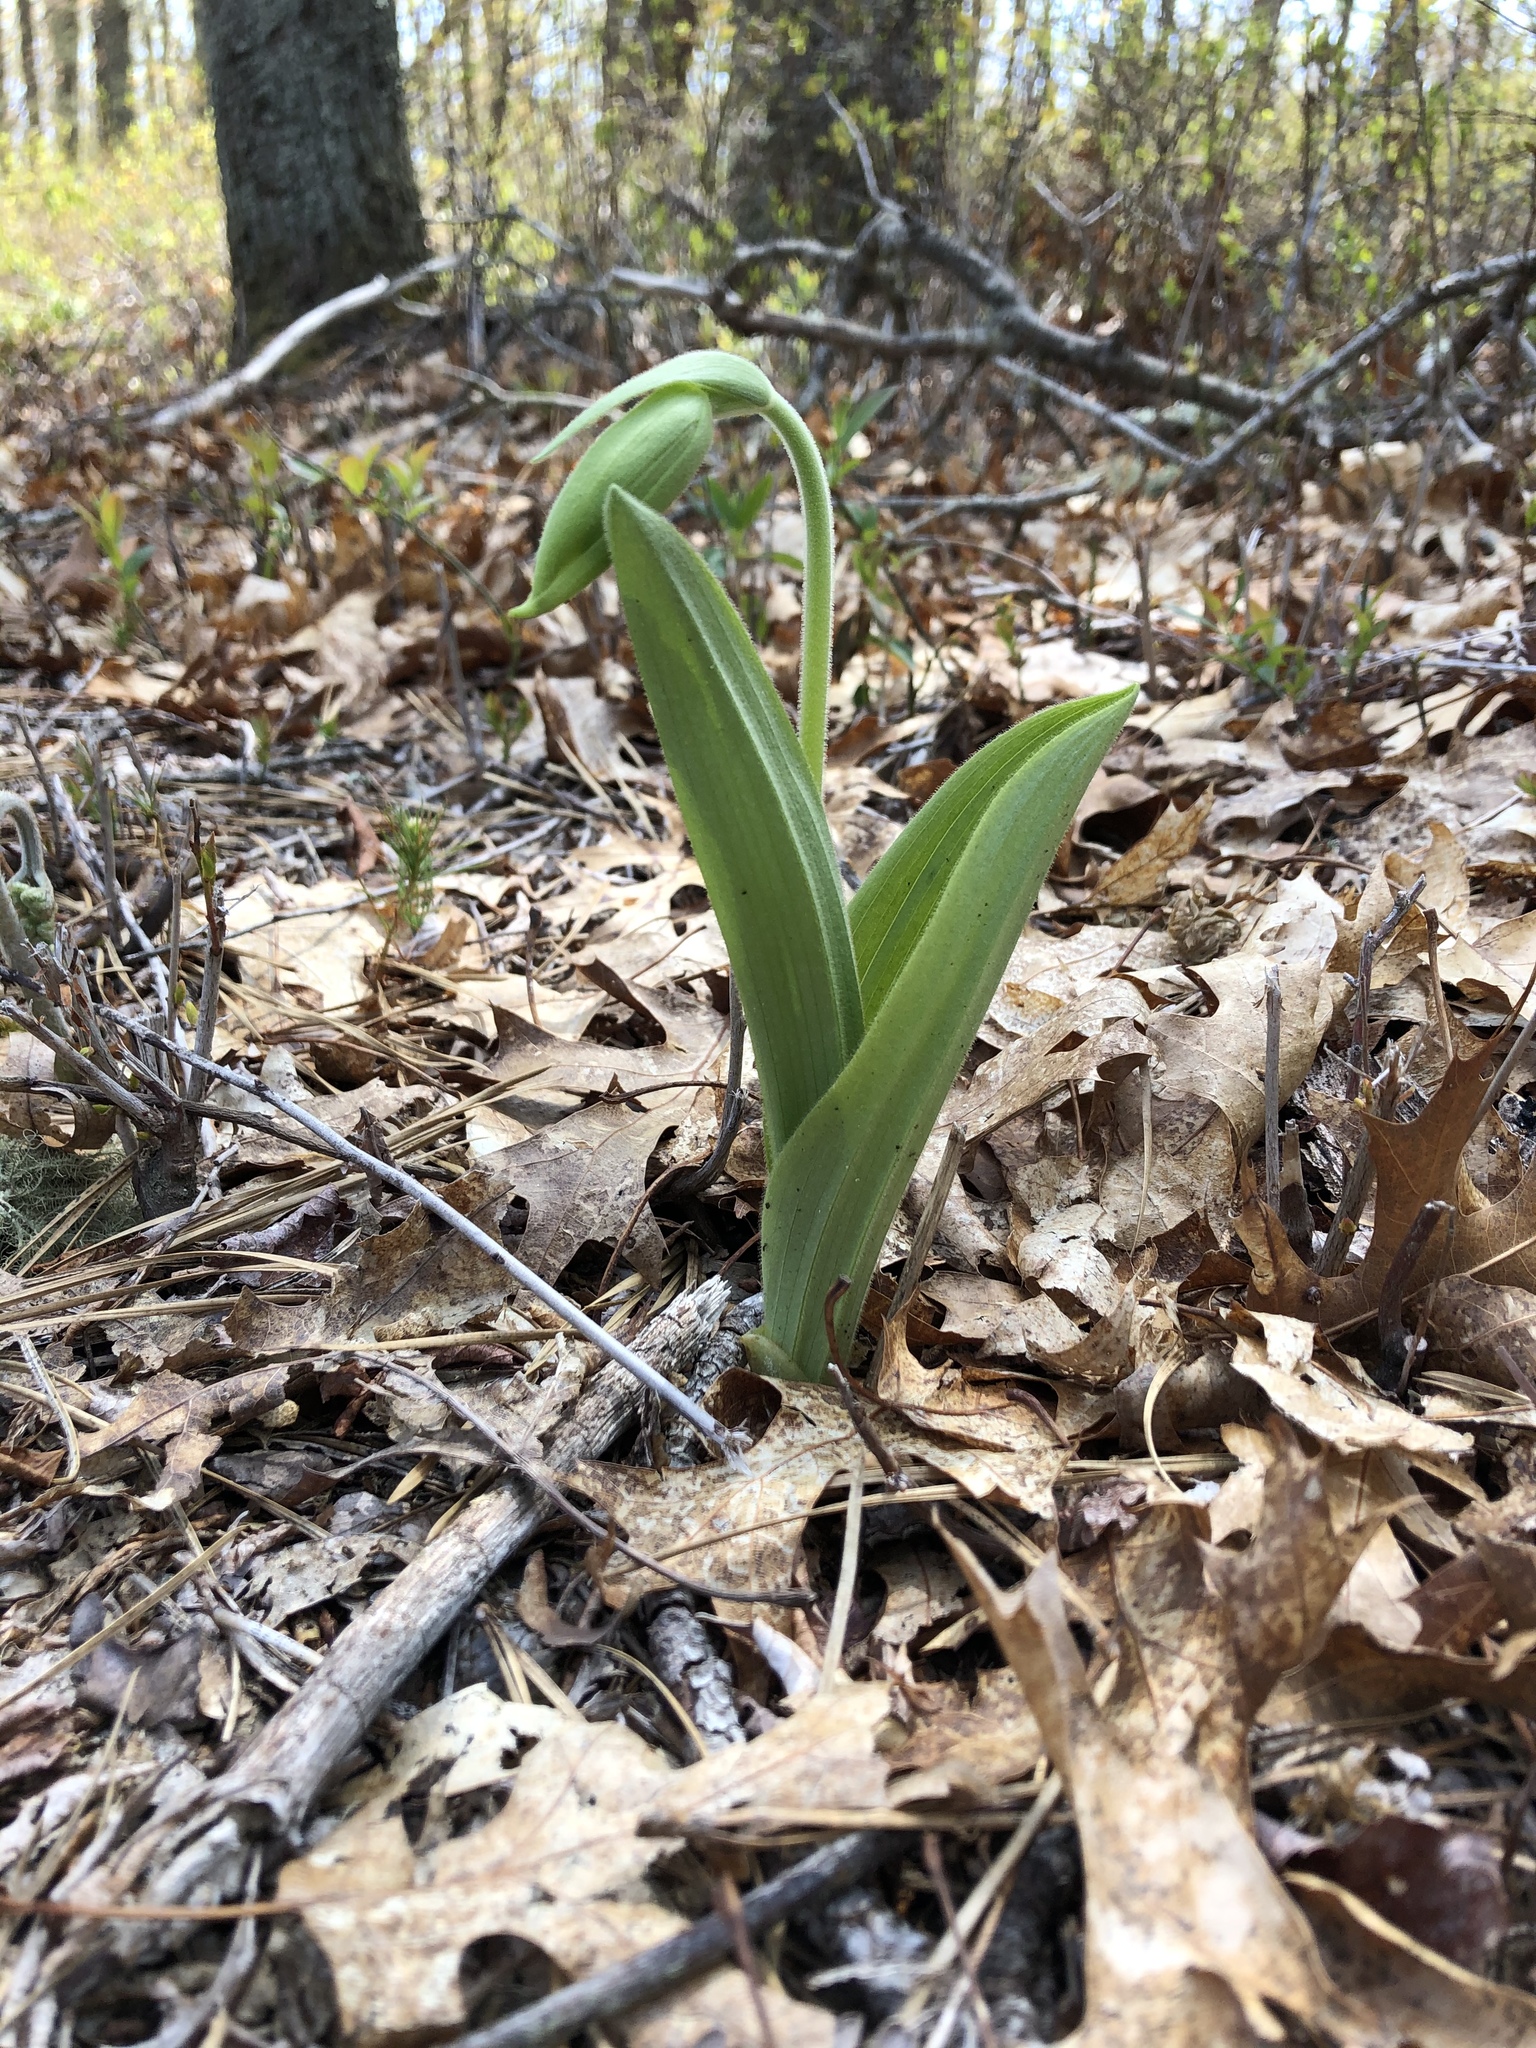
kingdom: Plantae
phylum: Tracheophyta
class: Liliopsida
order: Asparagales
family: Orchidaceae
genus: Cypripedium
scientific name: Cypripedium acaule
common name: Pink lady's-slipper
